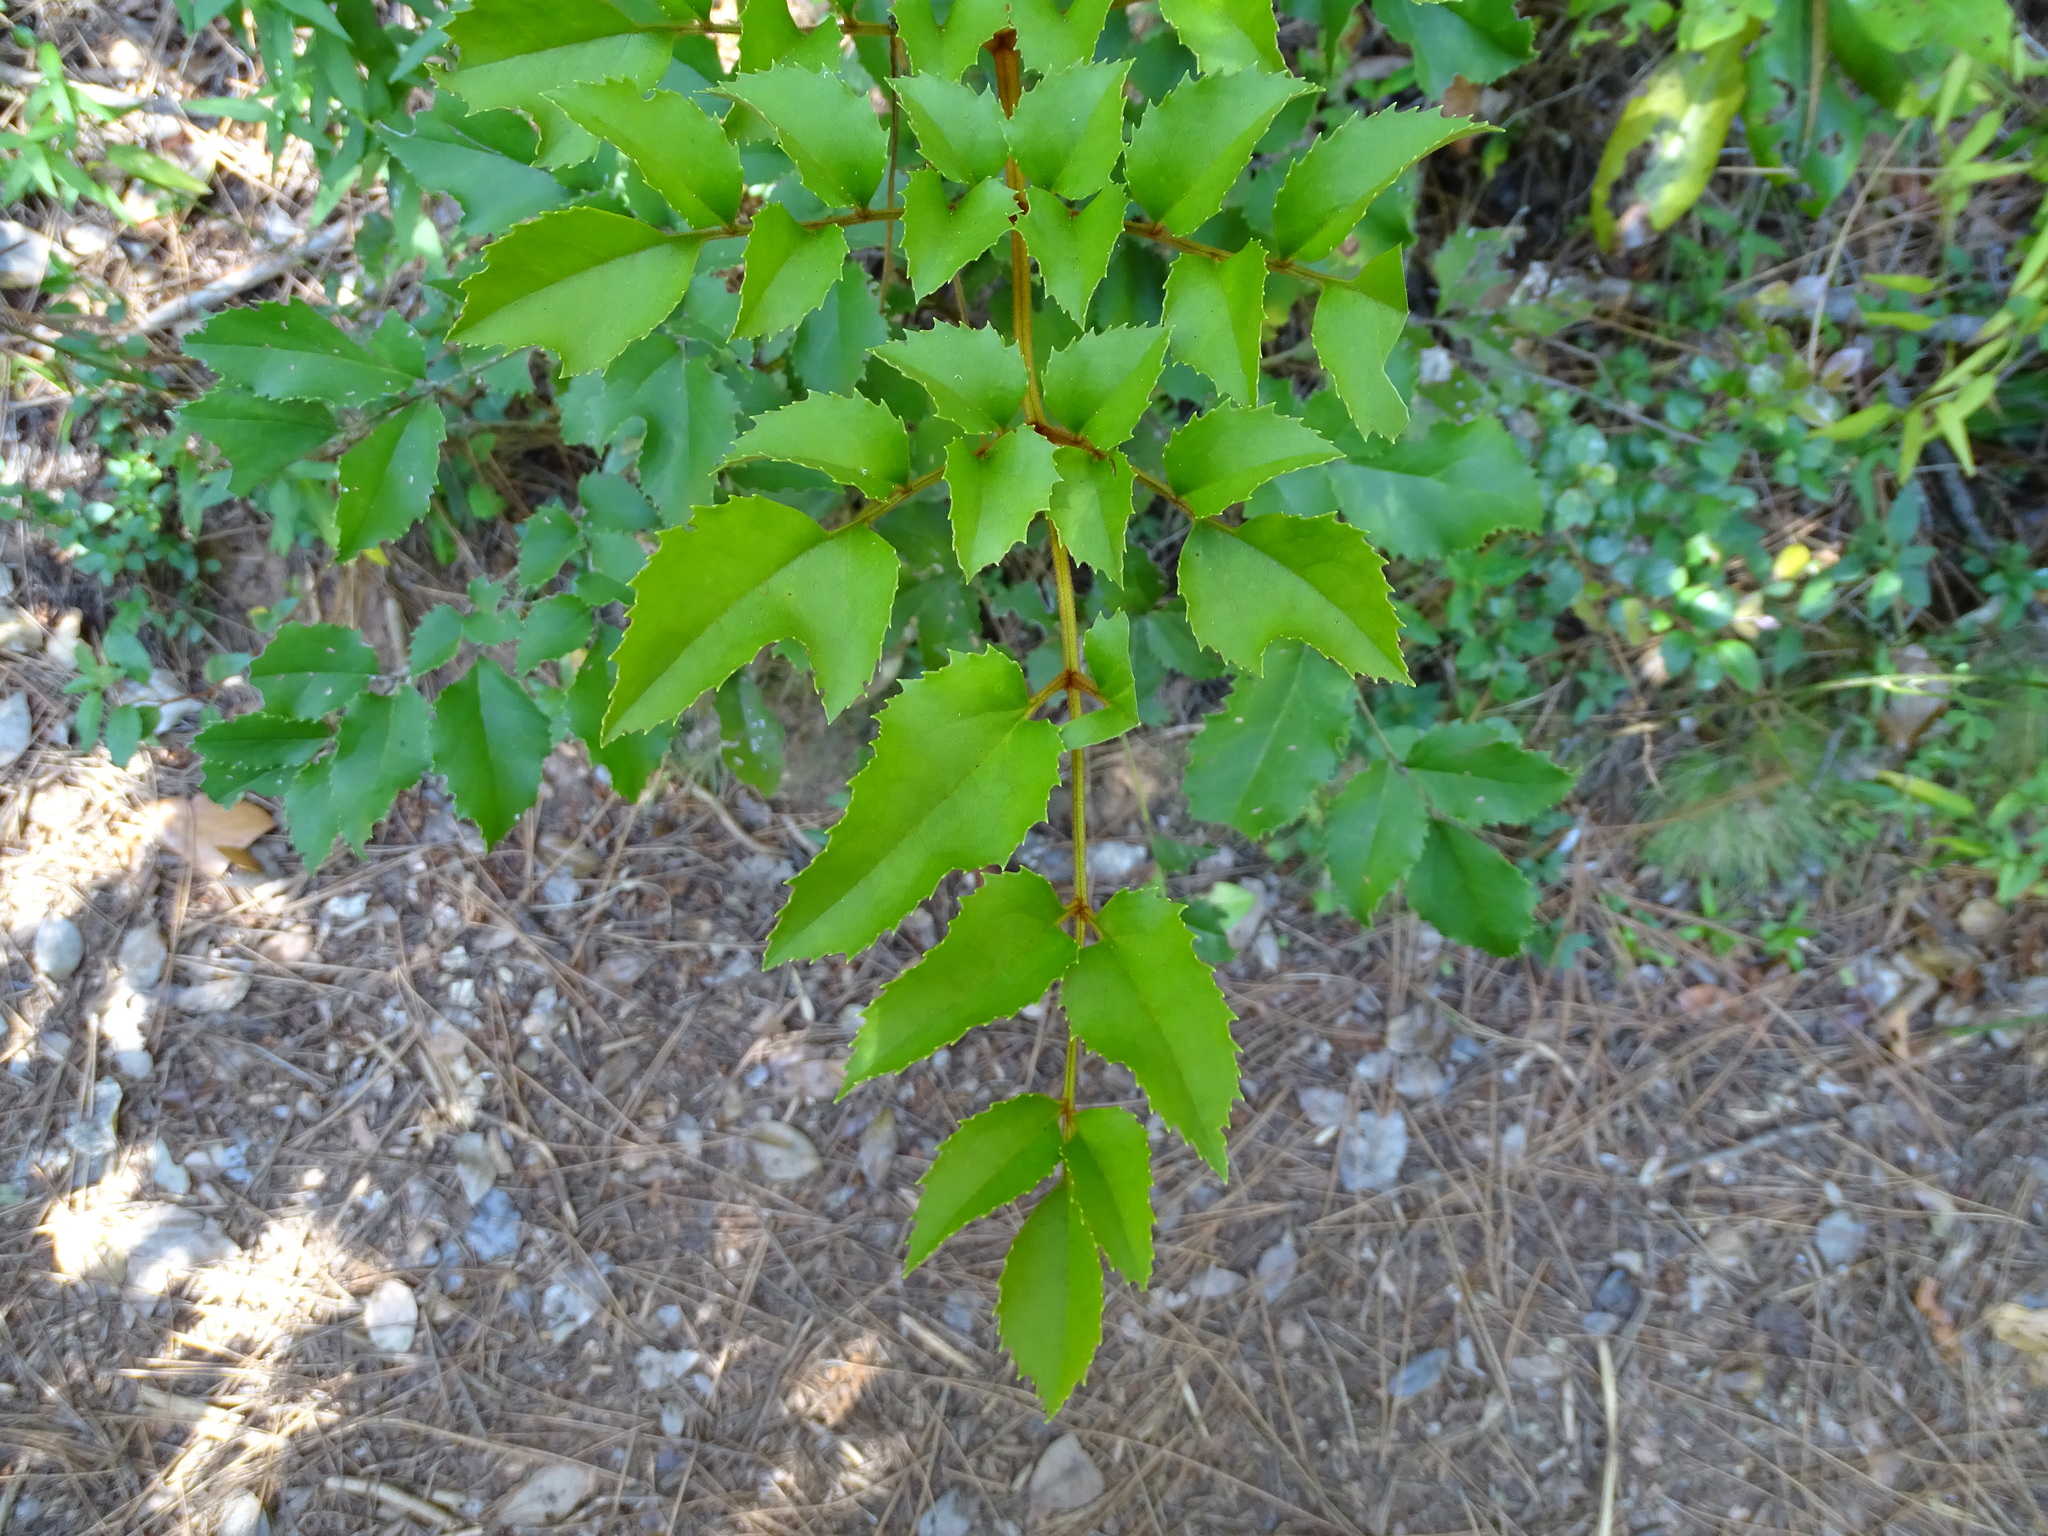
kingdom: Plantae
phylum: Tracheophyta
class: Magnoliopsida
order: Proteales
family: Proteaceae
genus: Gevuina
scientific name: Gevuina avellana
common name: Chilean hazel
